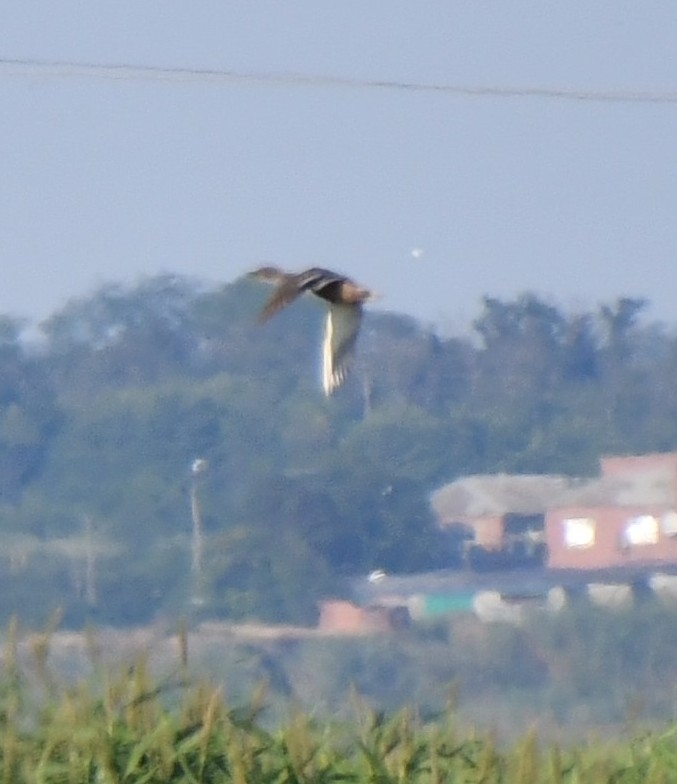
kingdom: Animalia
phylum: Chordata
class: Aves
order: Anseriformes
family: Anatidae
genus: Anas
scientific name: Anas platyrhynchos
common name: Mallard
